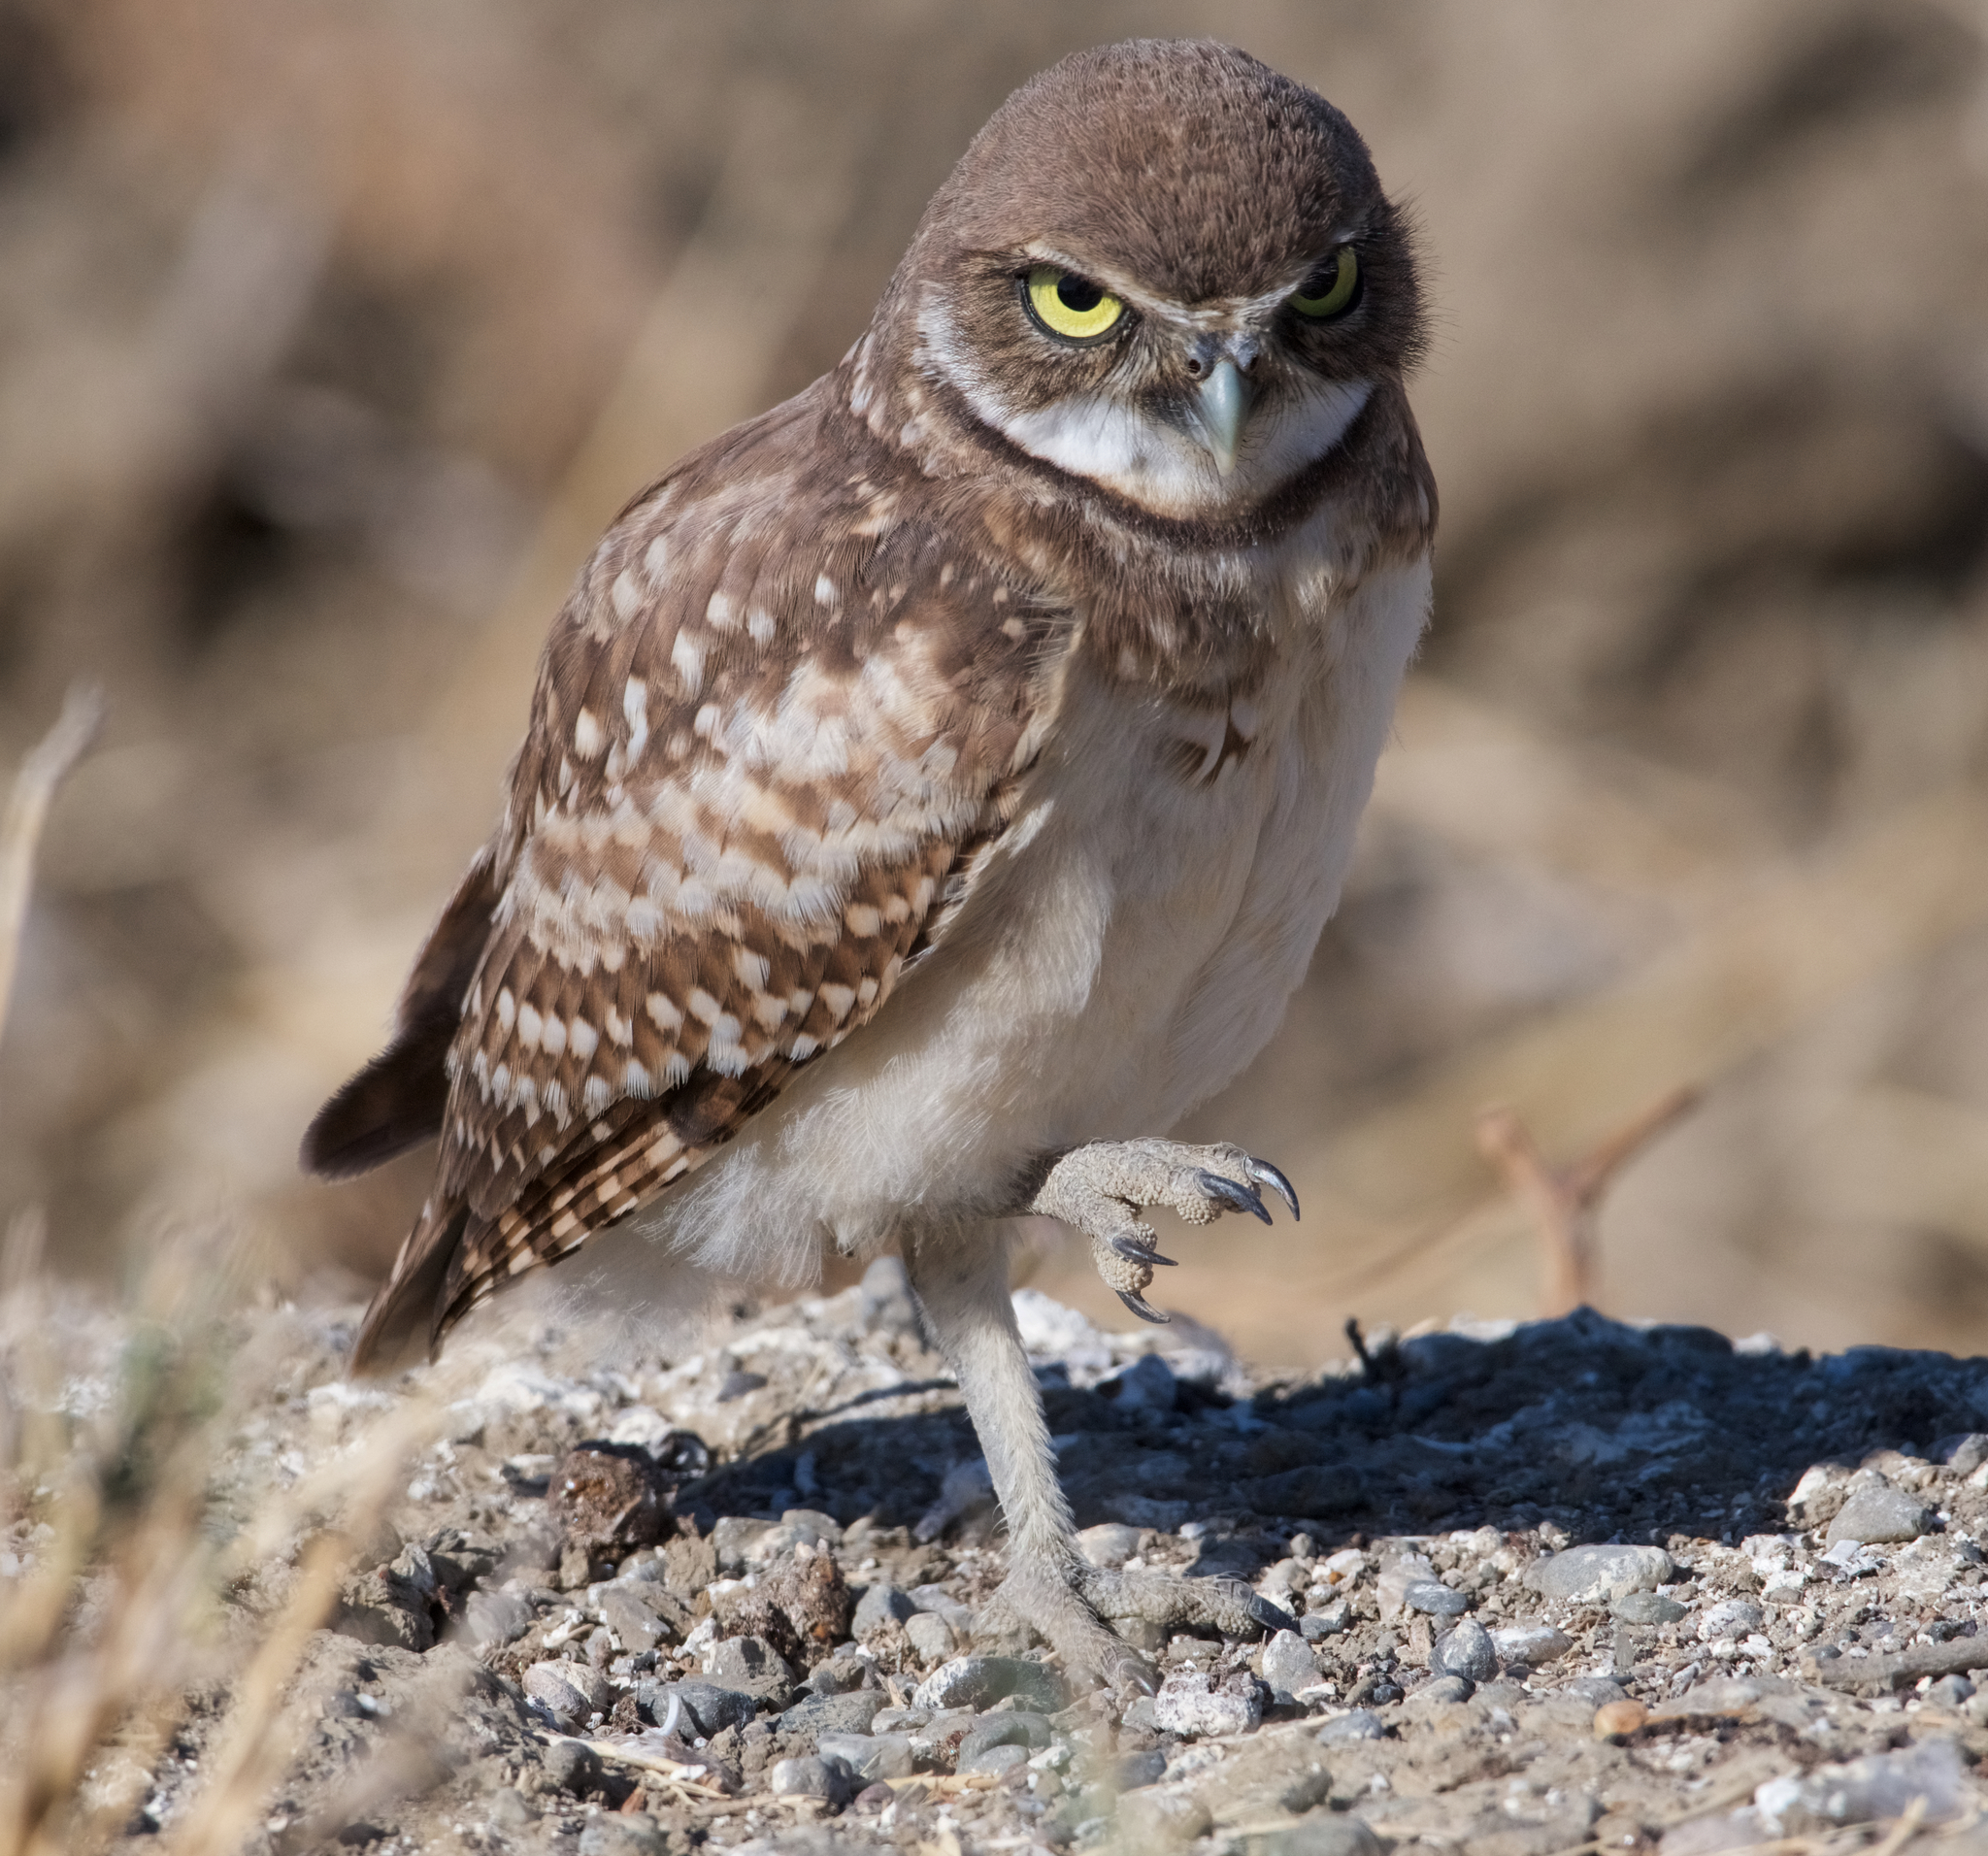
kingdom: Animalia
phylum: Chordata
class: Aves
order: Strigiformes
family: Strigidae
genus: Athene
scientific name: Athene cunicularia
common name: Burrowing owl
